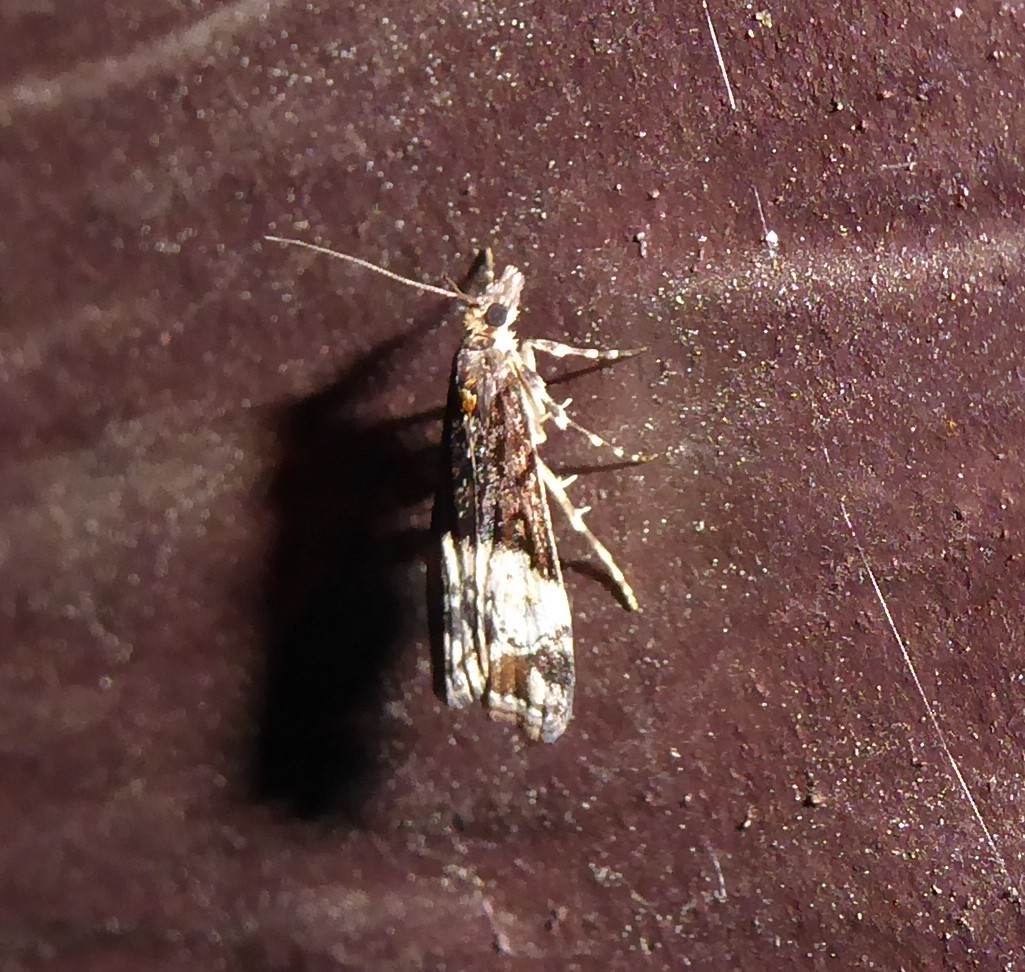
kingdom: Animalia
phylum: Arthropoda
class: Insecta
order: Lepidoptera
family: Crambidae
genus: Scoparia
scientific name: Scoparia minusculalis
